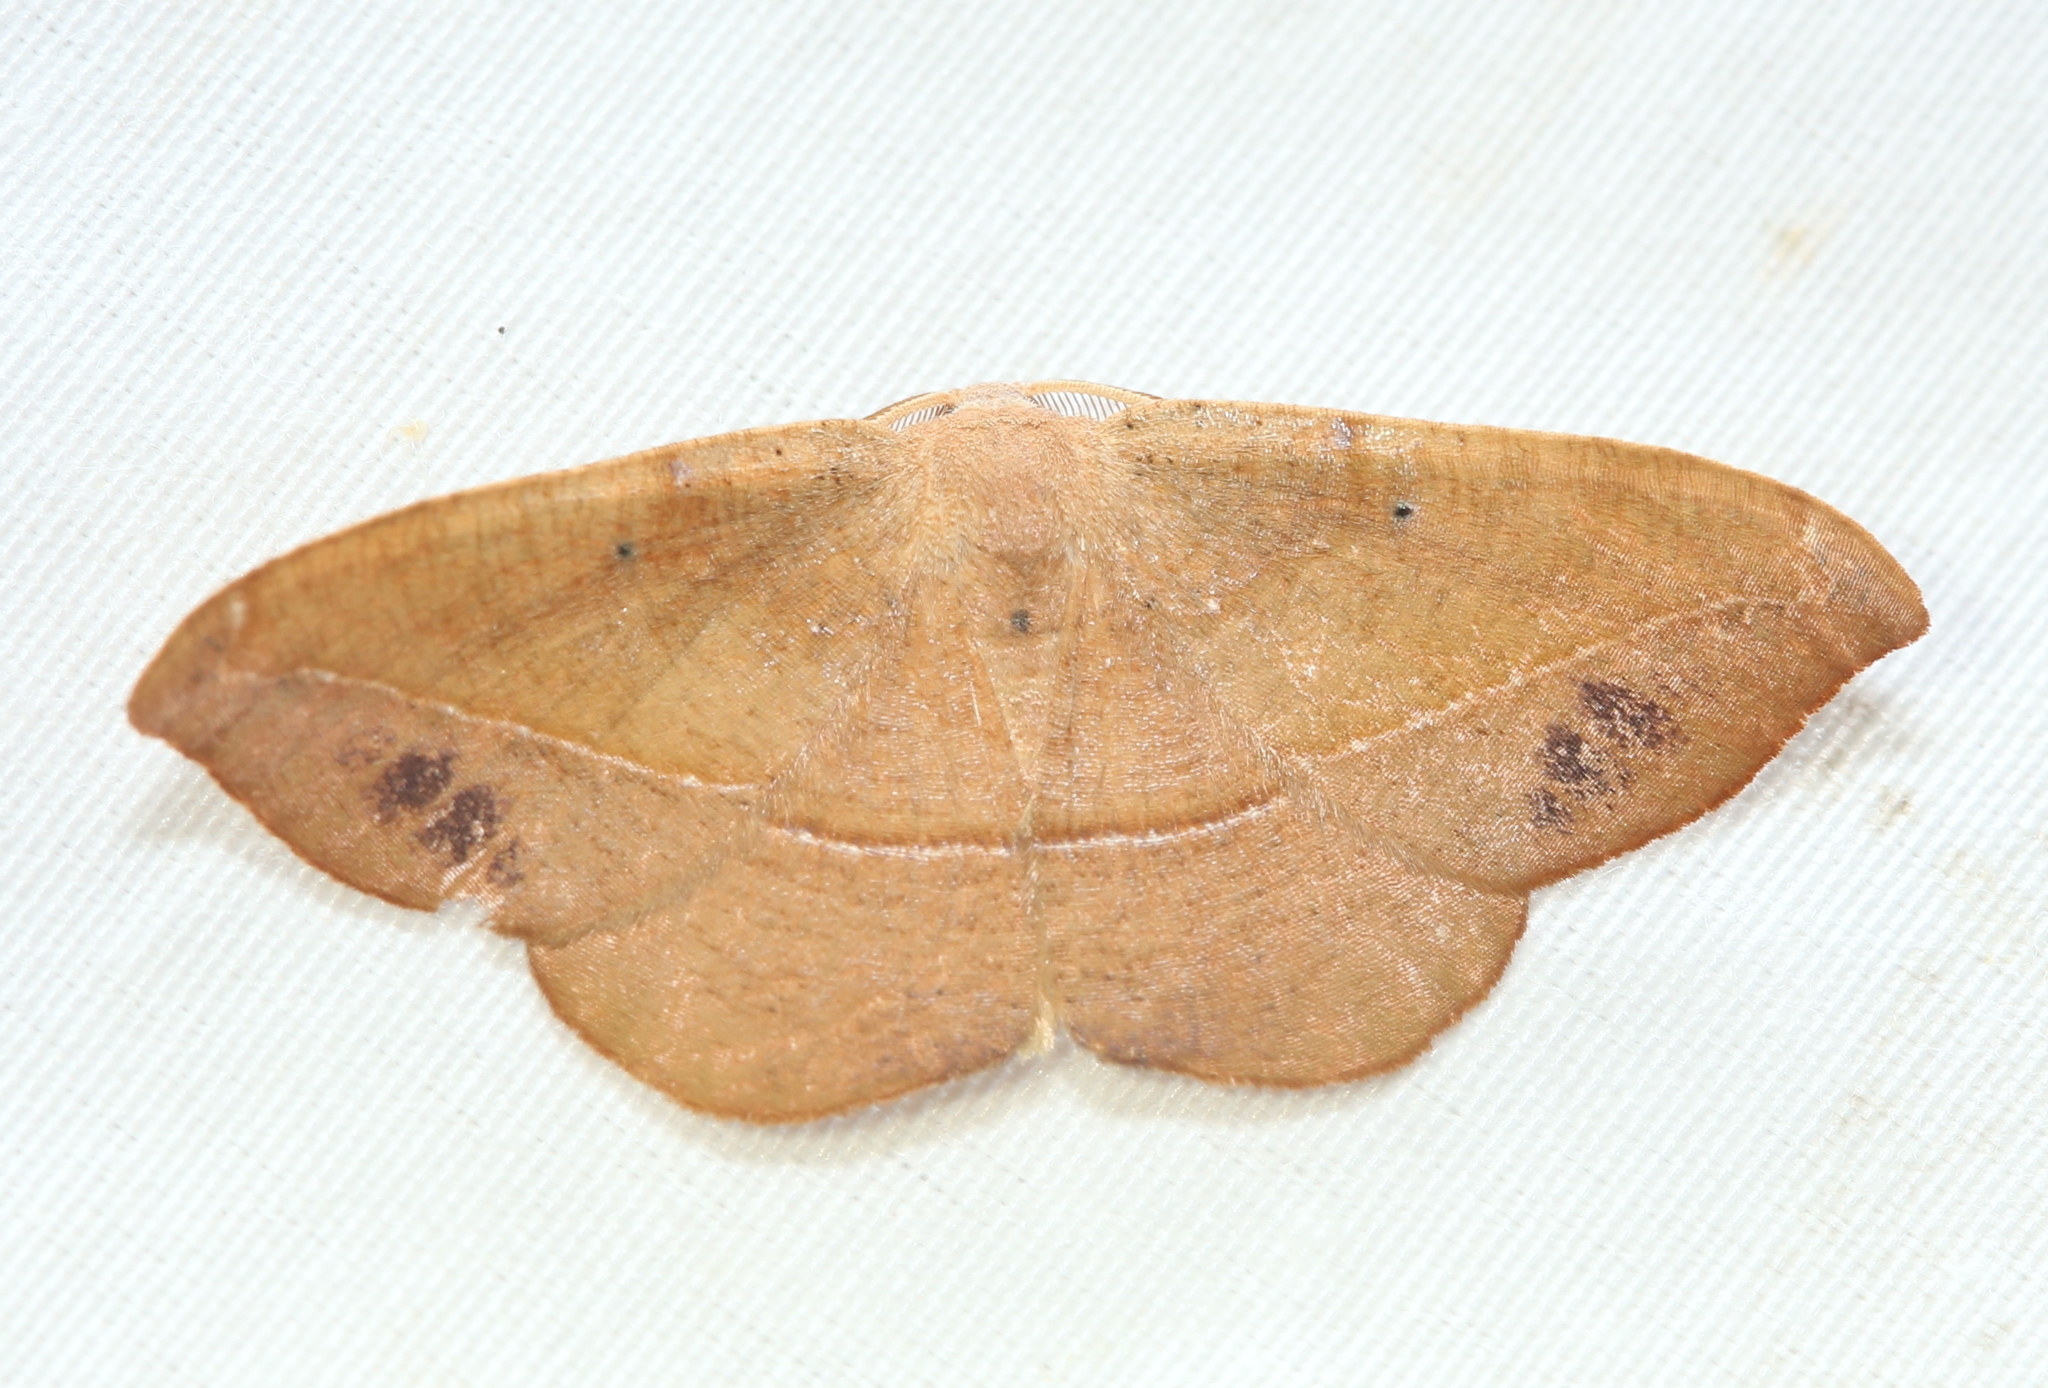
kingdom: Animalia
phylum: Arthropoda
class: Insecta
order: Lepidoptera
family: Geometridae
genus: Patalene
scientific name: Patalene olyzonaria
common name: Juniper geometer moth
